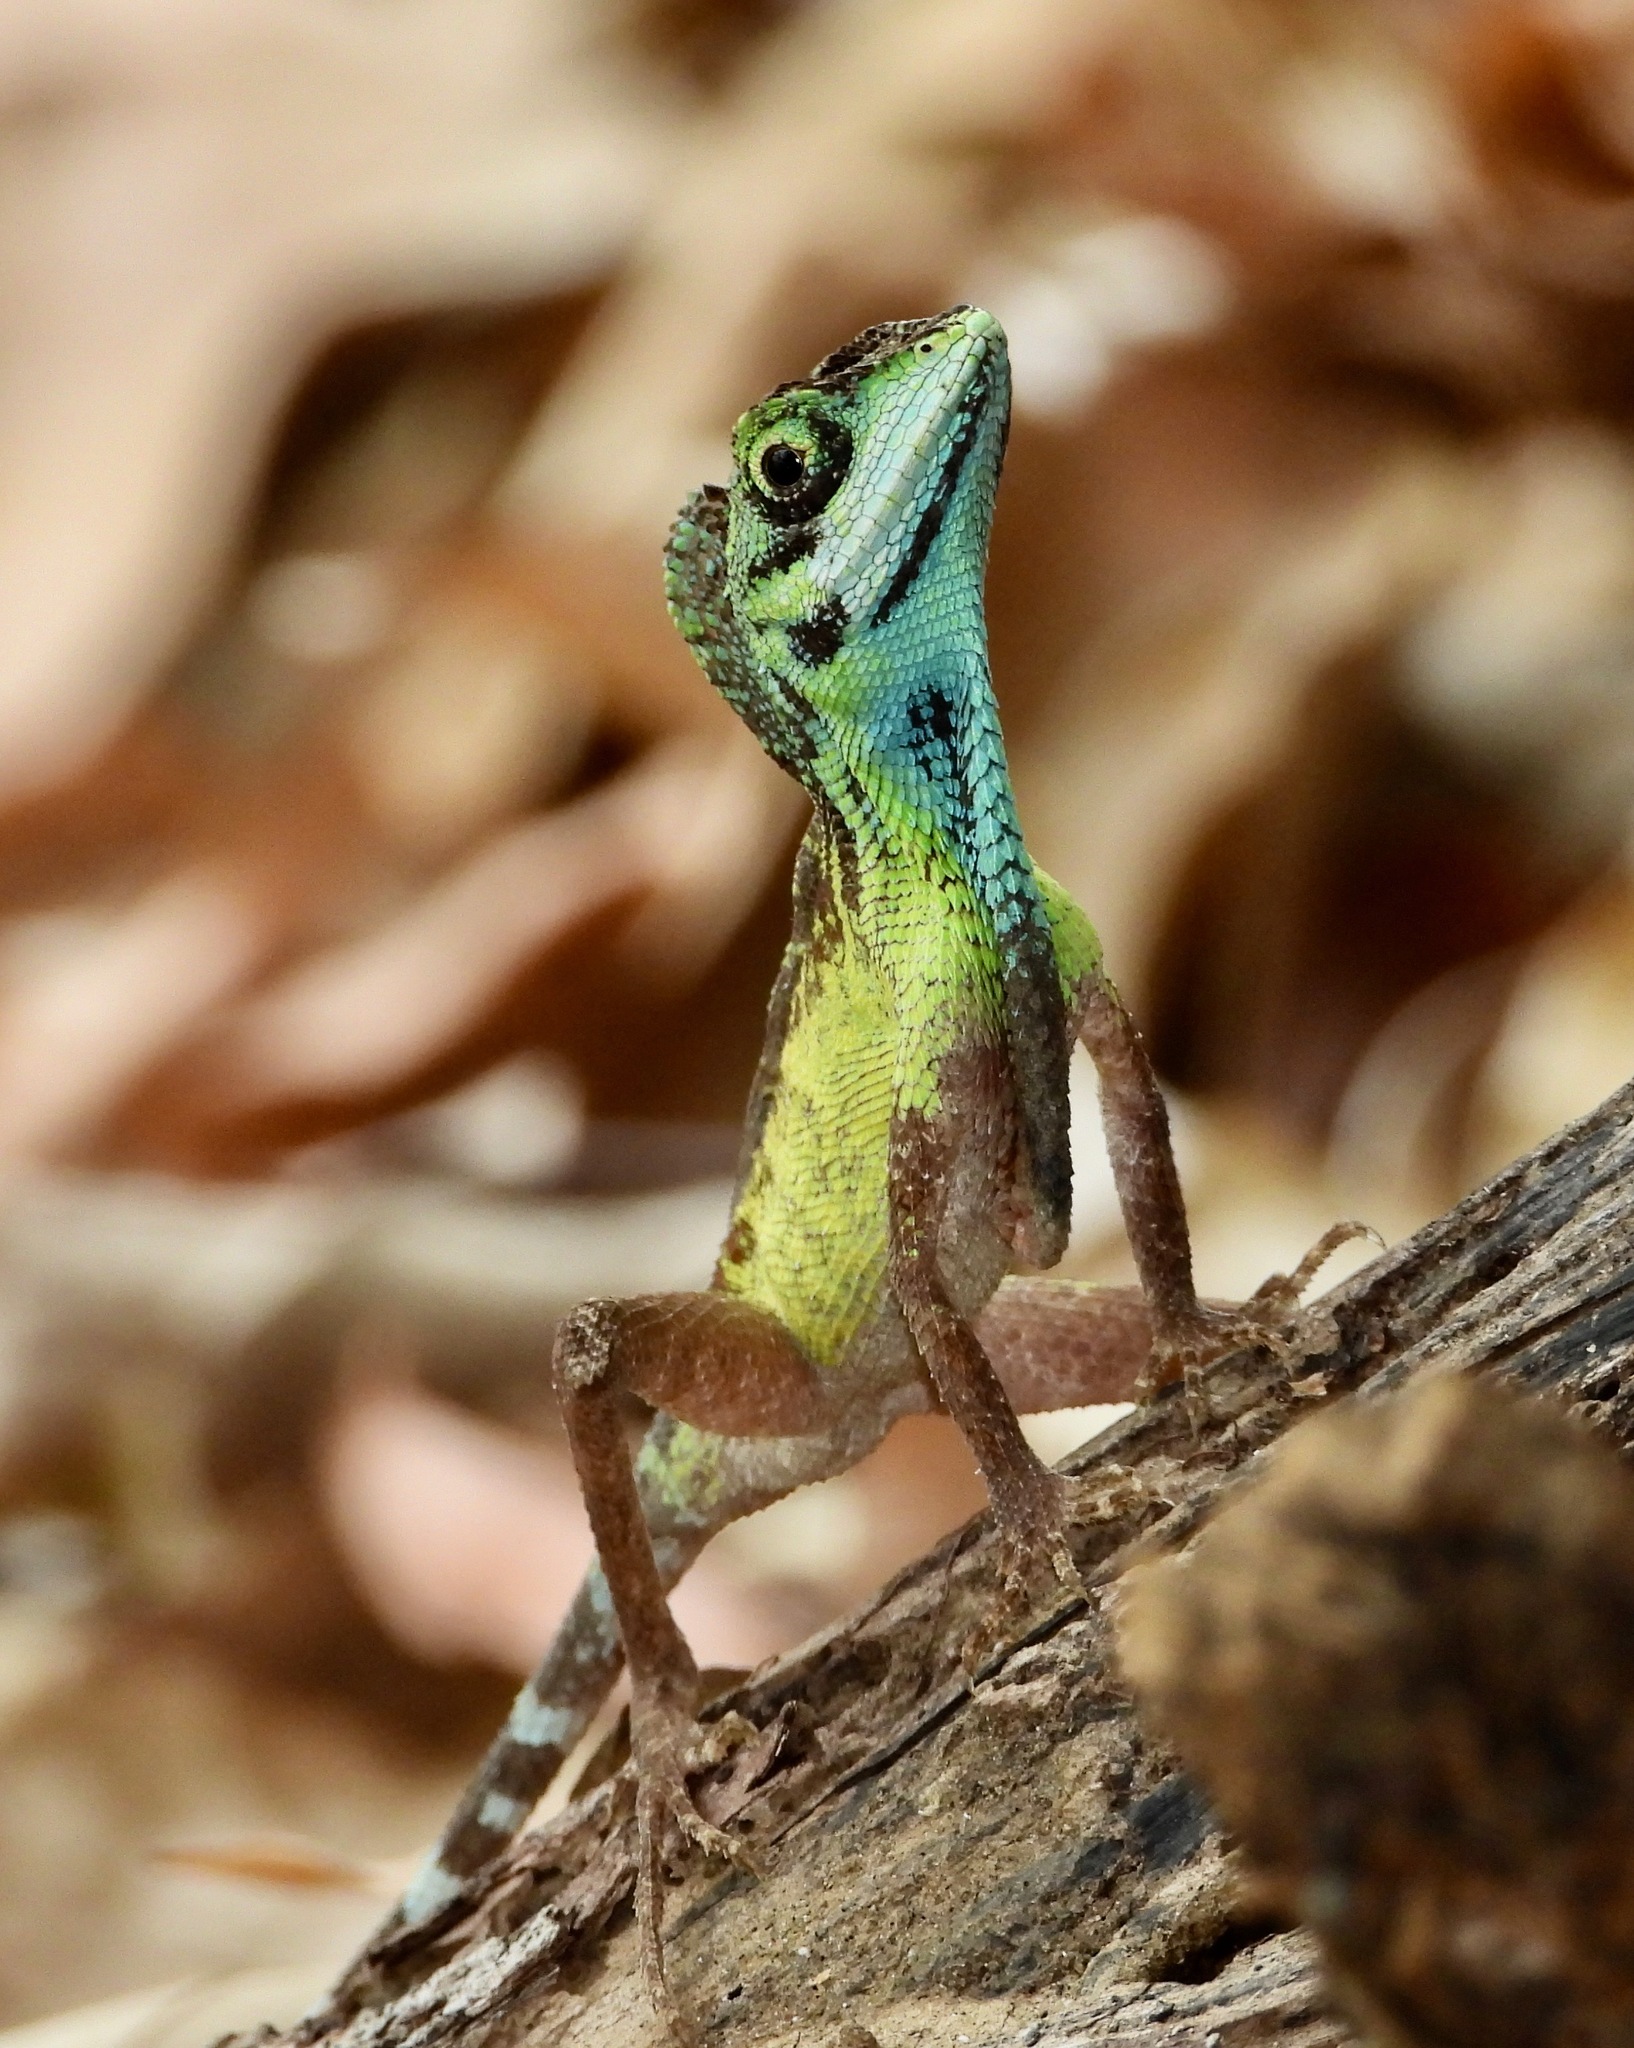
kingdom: Animalia
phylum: Chordata
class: Squamata
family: Agamidae
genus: Otocryptis
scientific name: Otocryptis nigristigma
